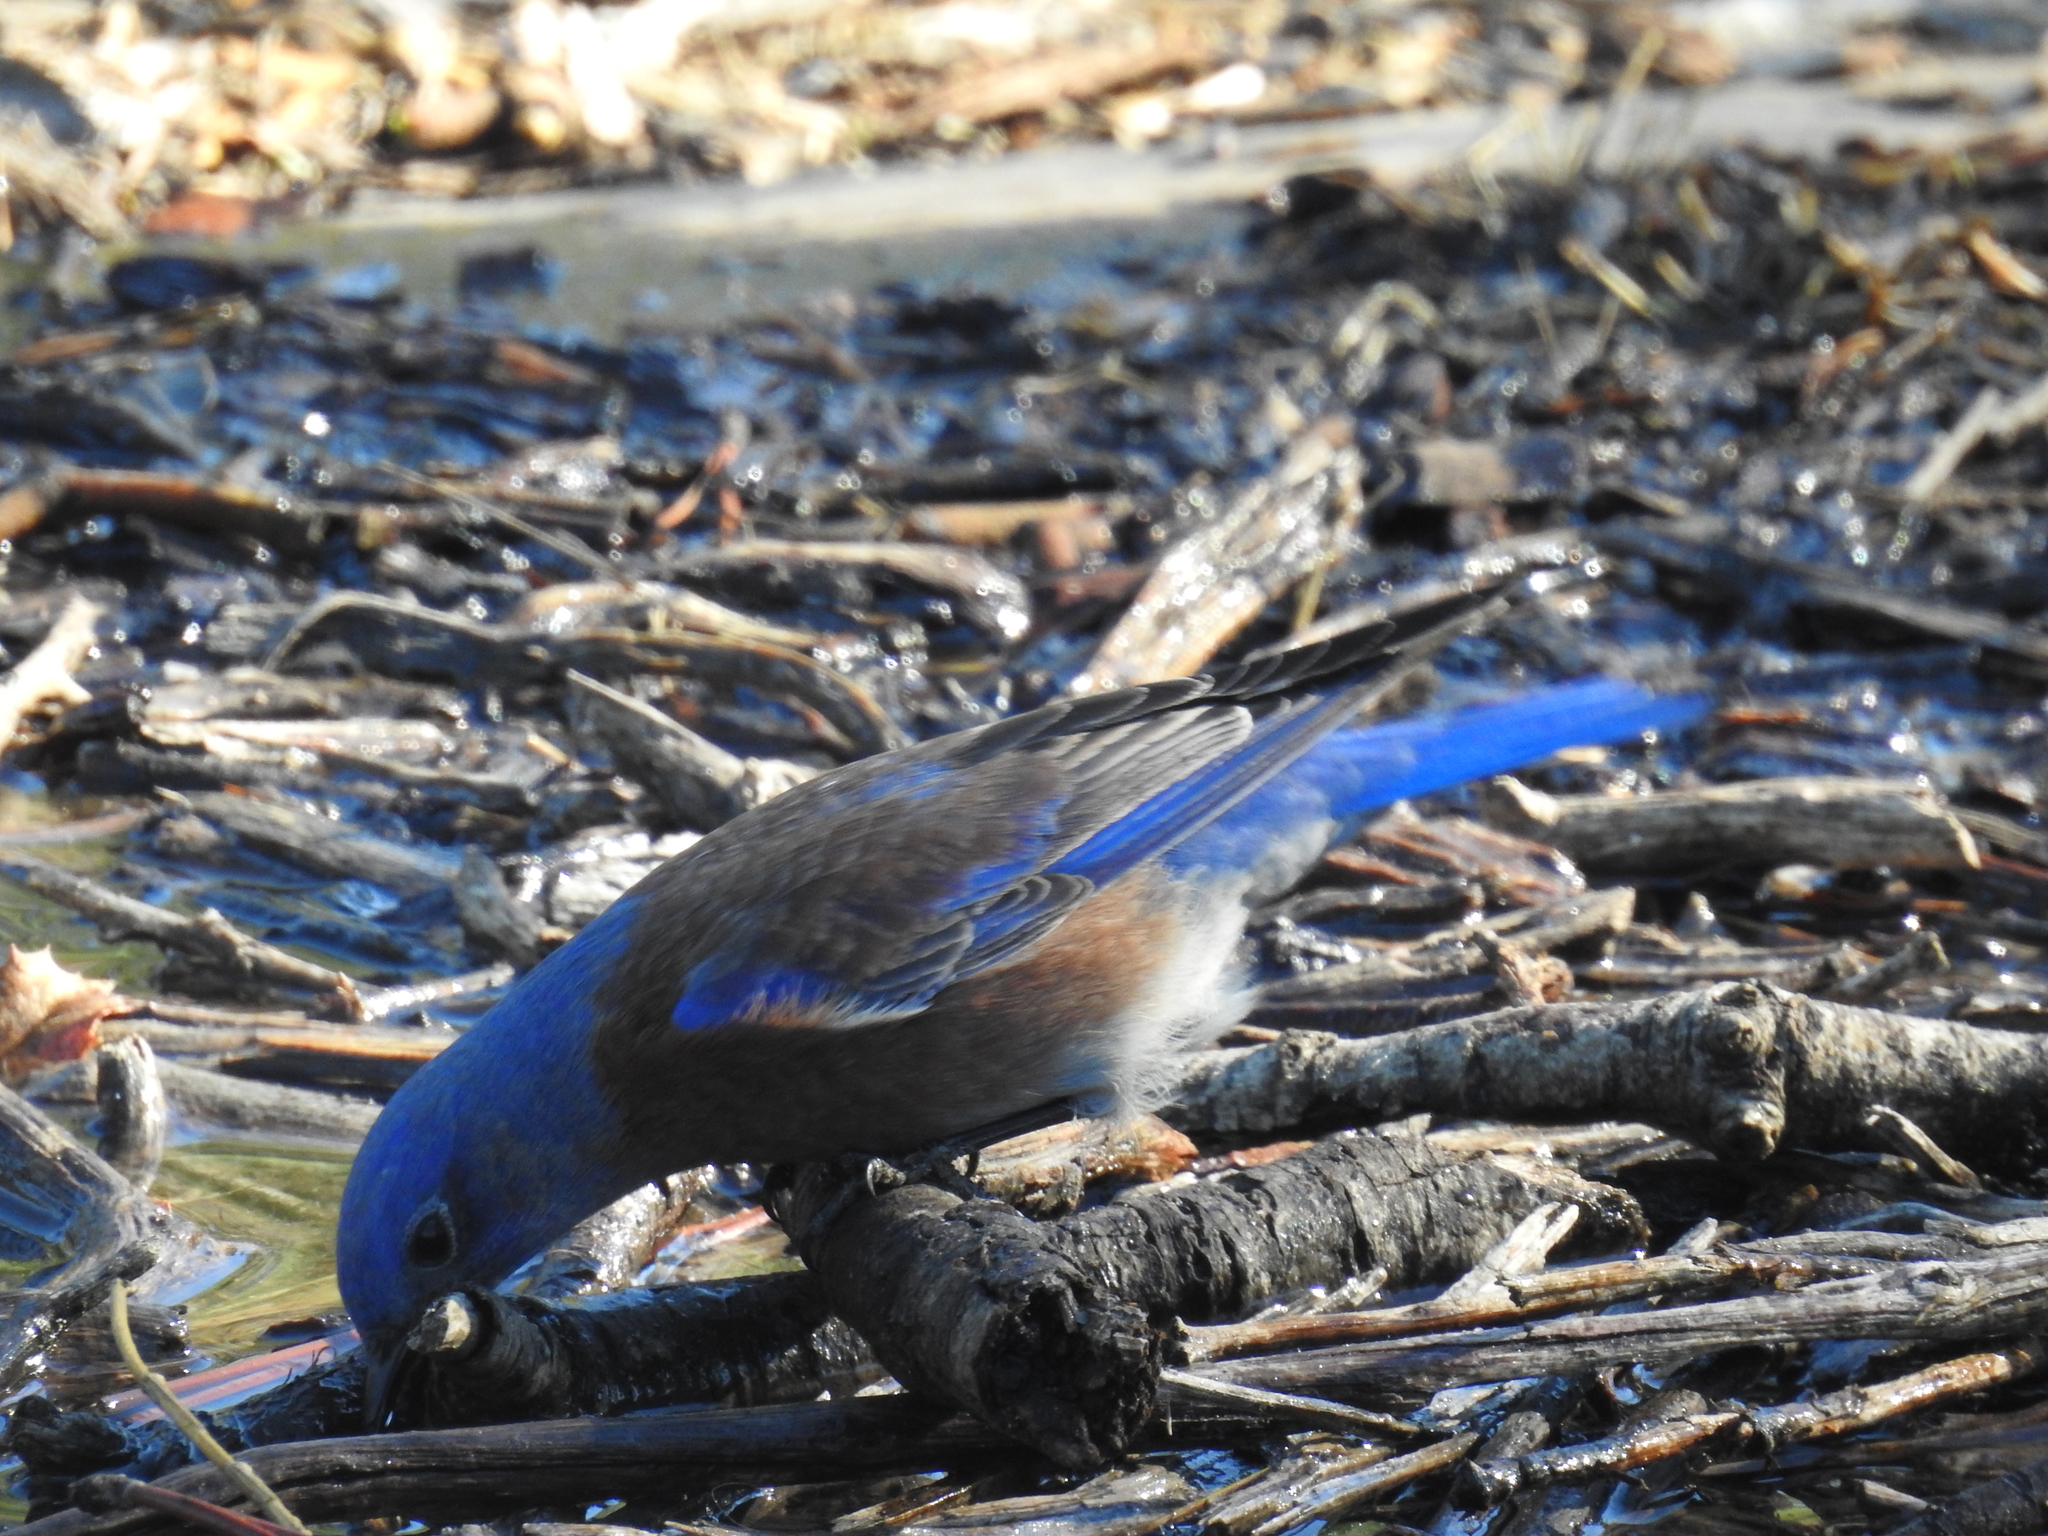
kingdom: Animalia
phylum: Chordata
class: Aves
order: Passeriformes
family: Turdidae
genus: Sialia
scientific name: Sialia mexicana
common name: Western bluebird
